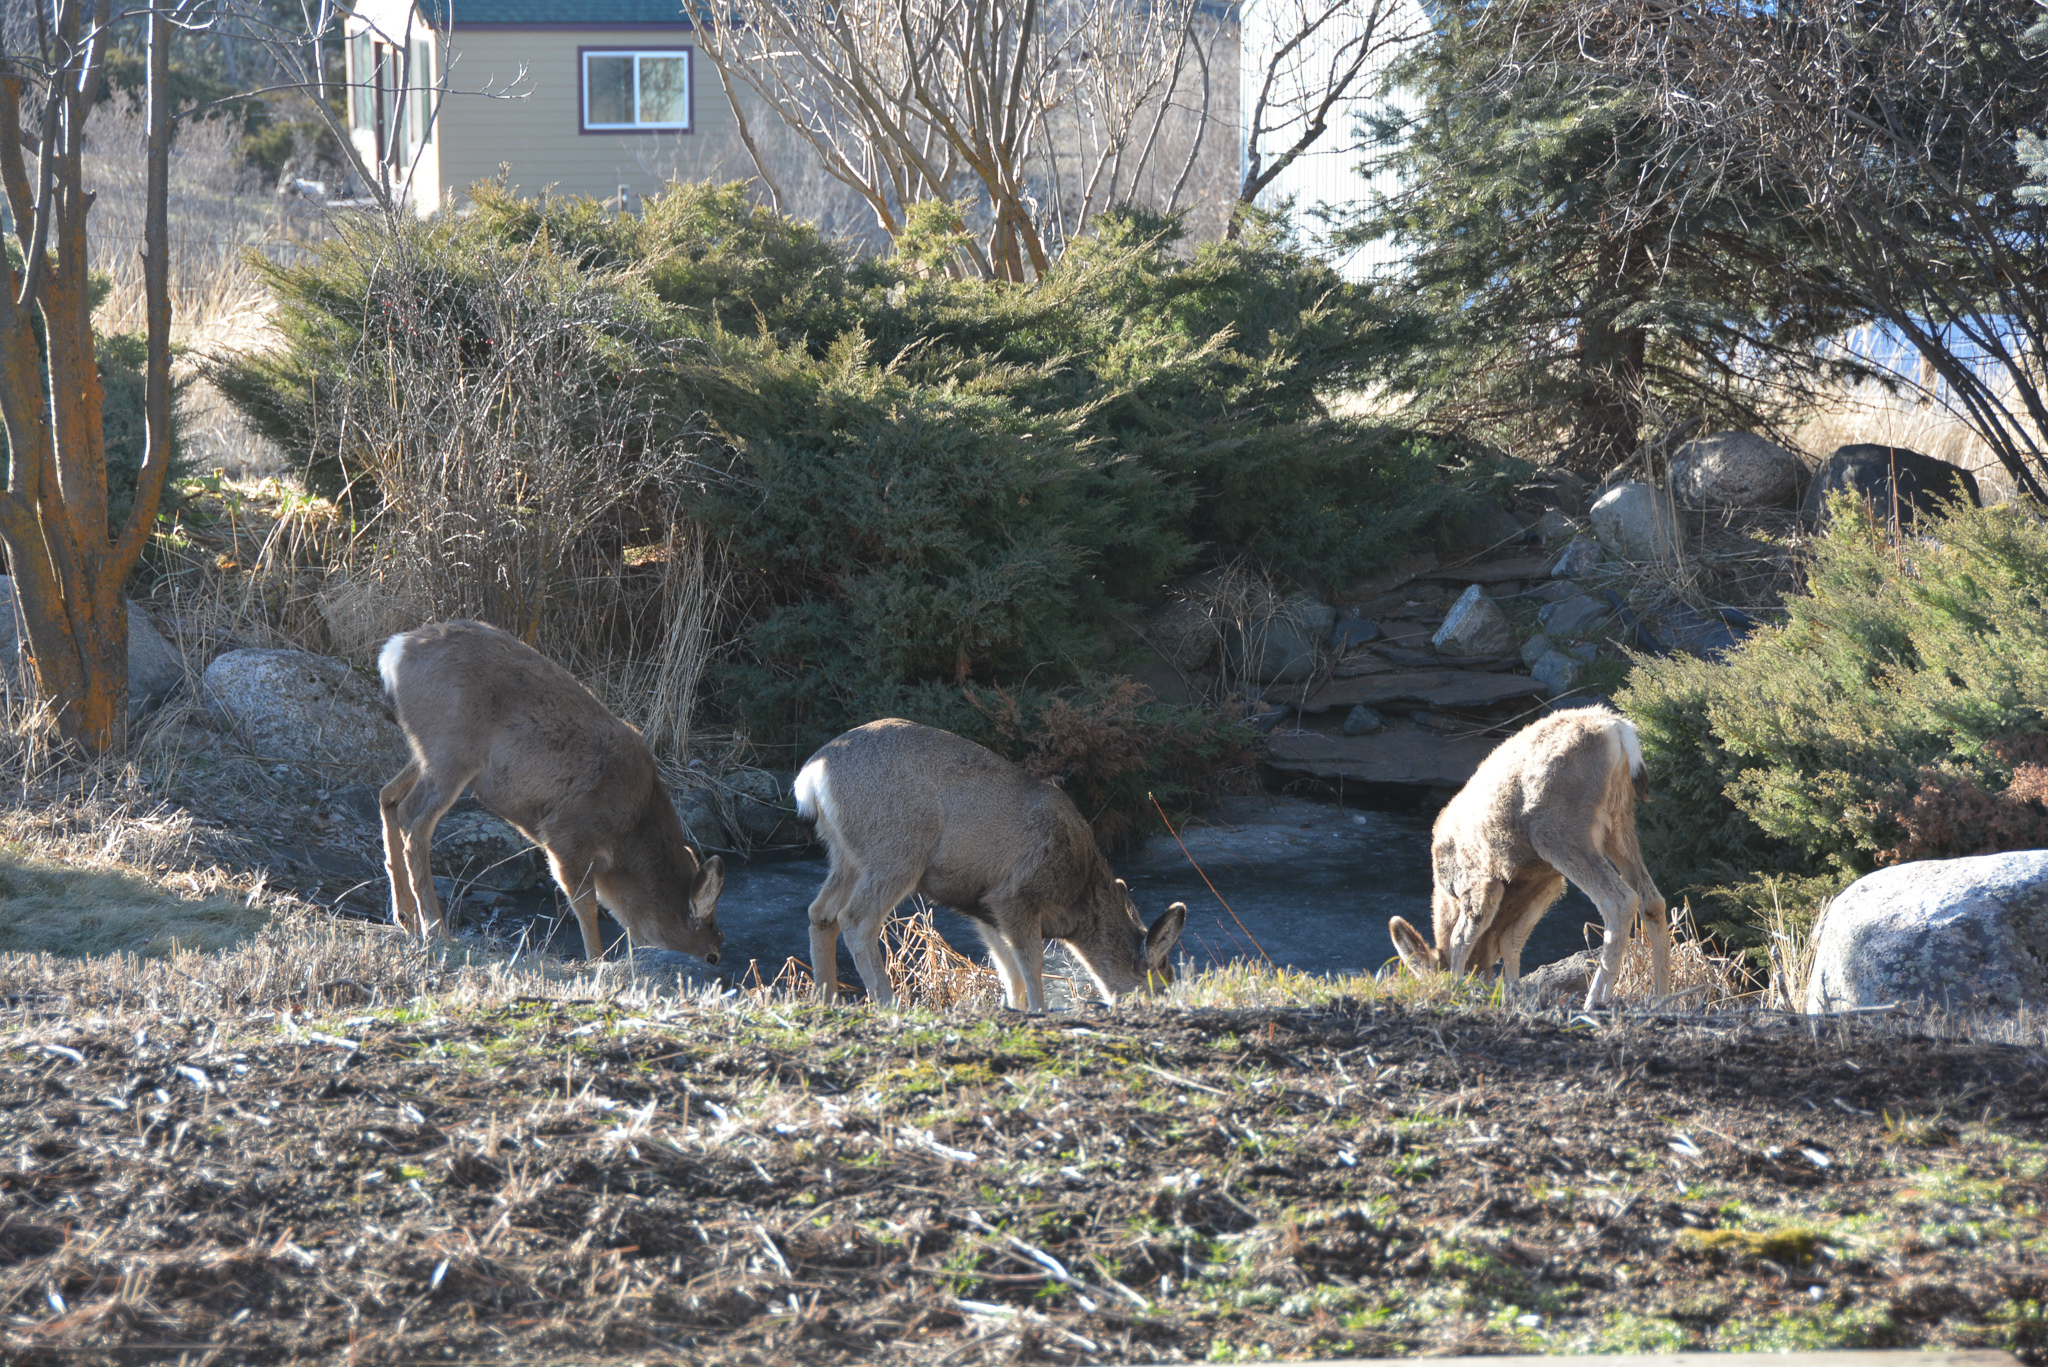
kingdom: Animalia
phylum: Chordata
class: Mammalia
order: Artiodactyla
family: Cervidae
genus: Odocoileus
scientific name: Odocoileus hemionus
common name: Mule deer
